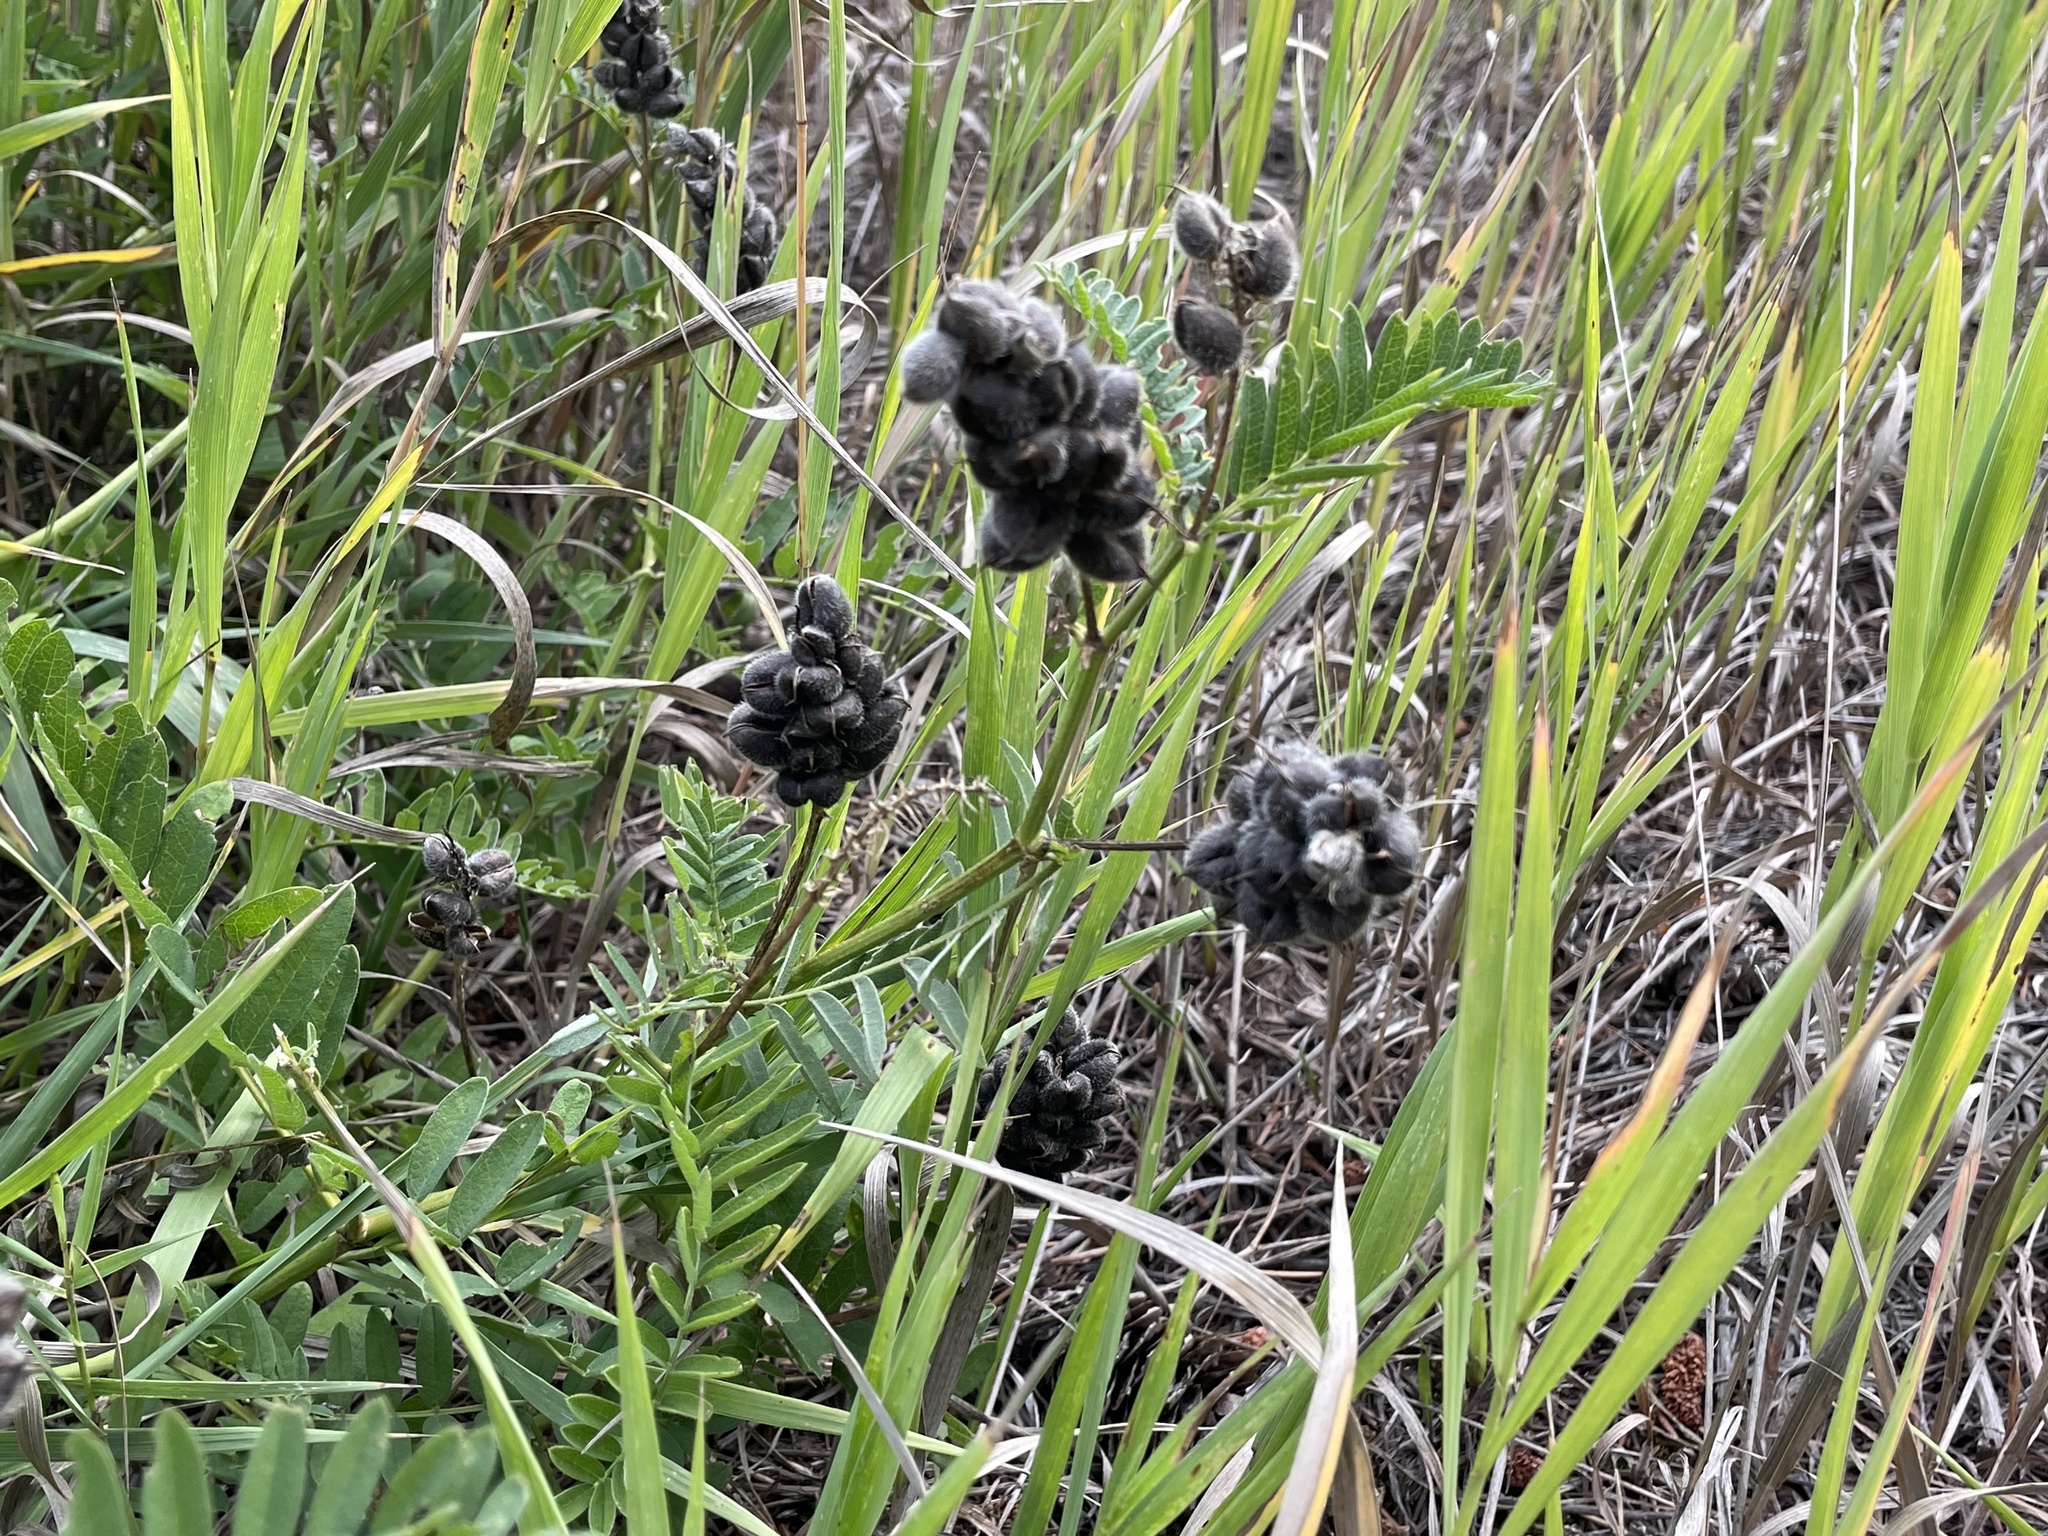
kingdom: Plantae
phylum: Tracheophyta
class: Magnoliopsida
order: Fabales
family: Fabaceae
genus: Astragalus
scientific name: Astragalus cicer
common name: Chick-pea milk-vetch
